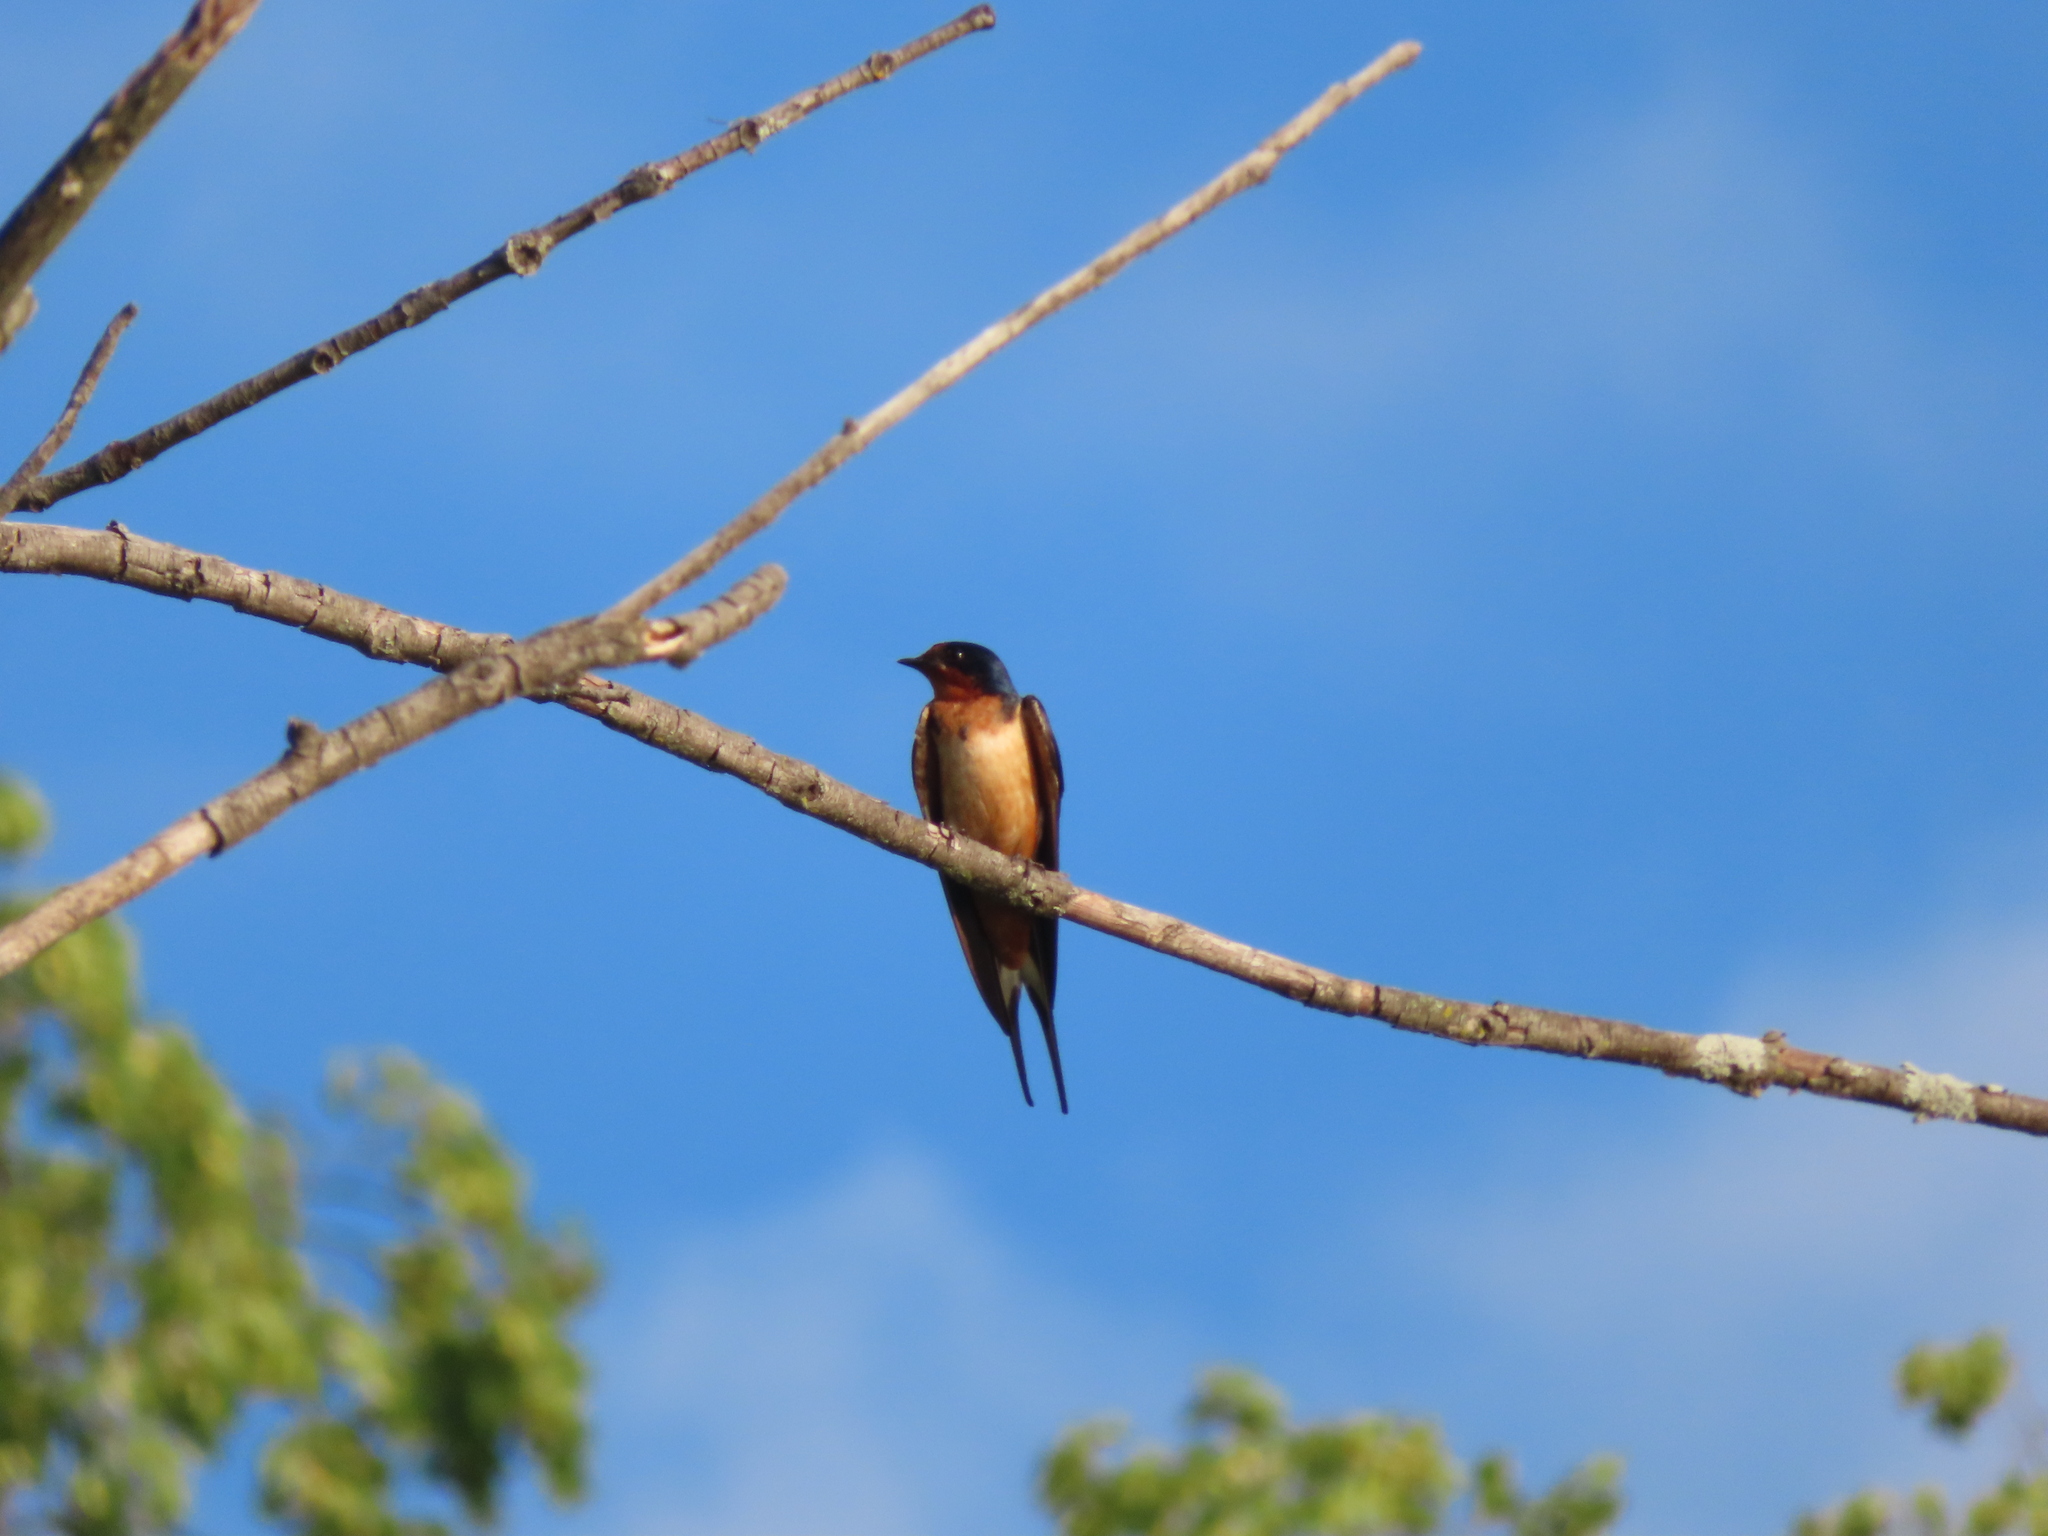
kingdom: Animalia
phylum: Chordata
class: Aves
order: Passeriformes
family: Hirundinidae
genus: Hirundo
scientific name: Hirundo rustica
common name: Barn swallow
